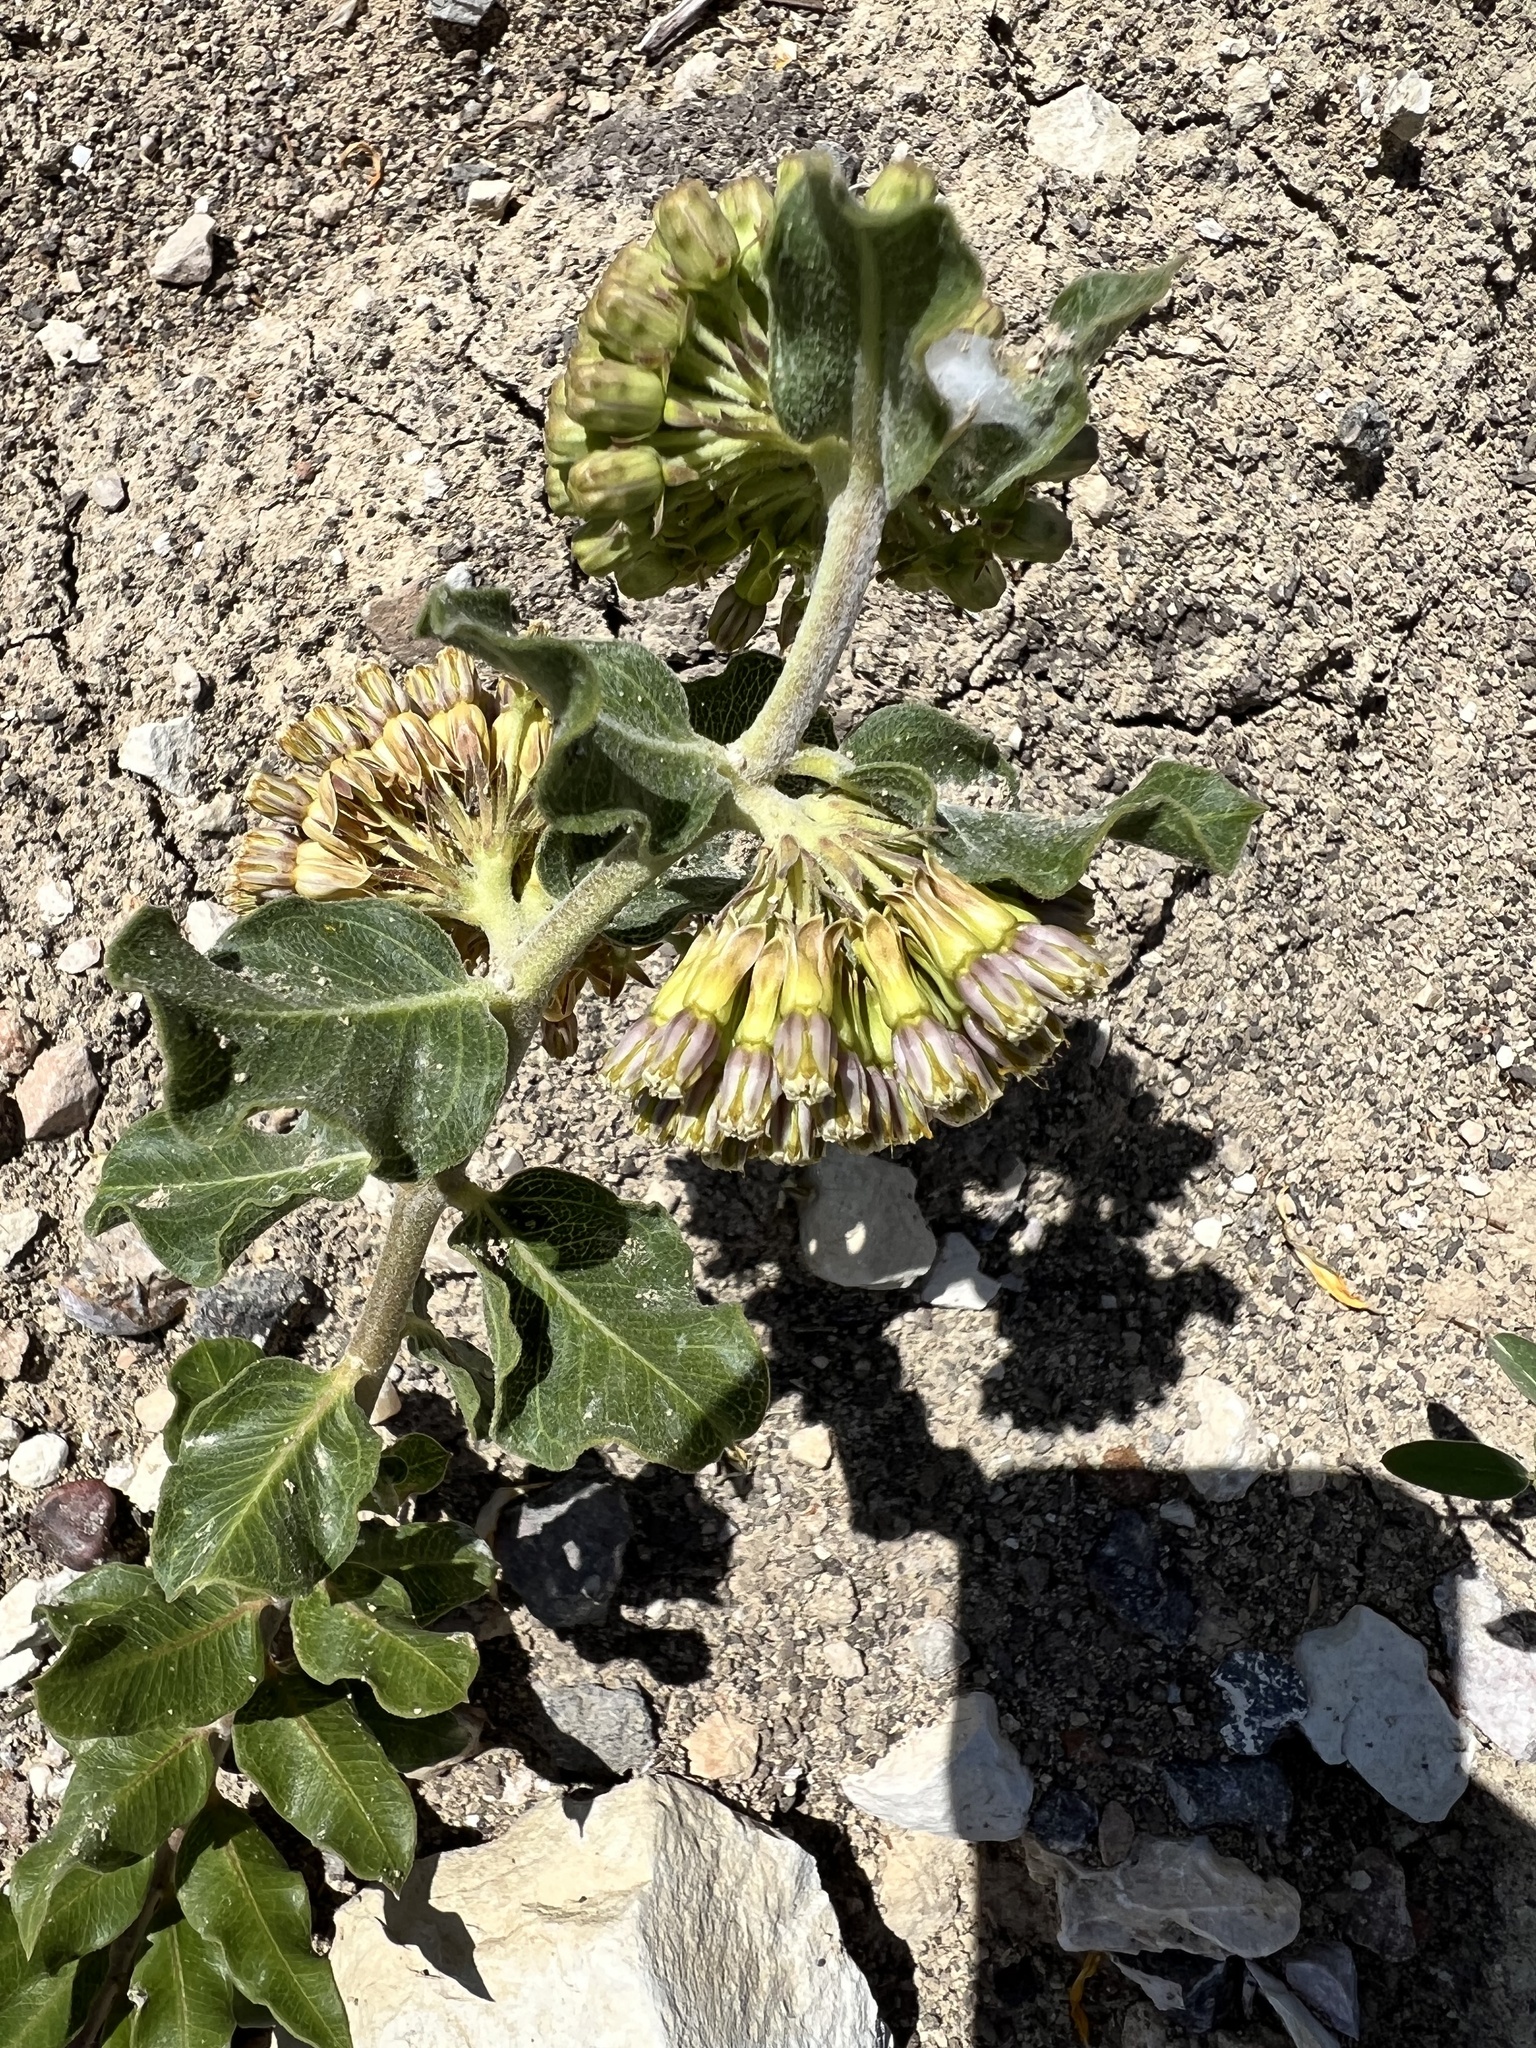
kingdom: Plantae
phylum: Tracheophyta
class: Magnoliopsida
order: Gentianales
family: Apocynaceae
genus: Asclepias
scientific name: Asclepias viridiflora
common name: Green comet milkweed
